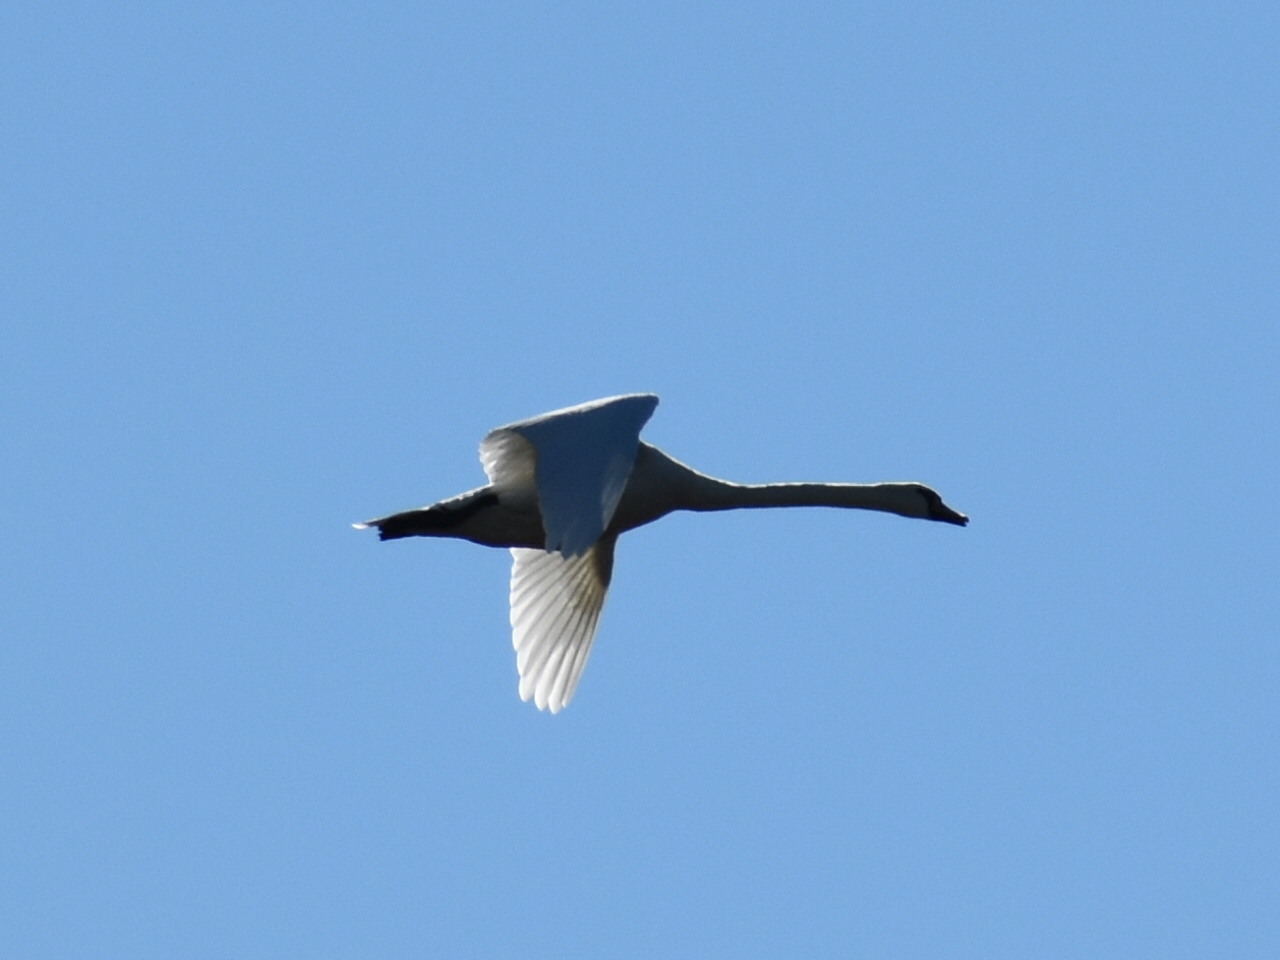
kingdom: Animalia
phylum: Chordata
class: Aves
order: Anseriformes
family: Anatidae
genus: Cygnus
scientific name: Cygnus olor
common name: Mute swan
